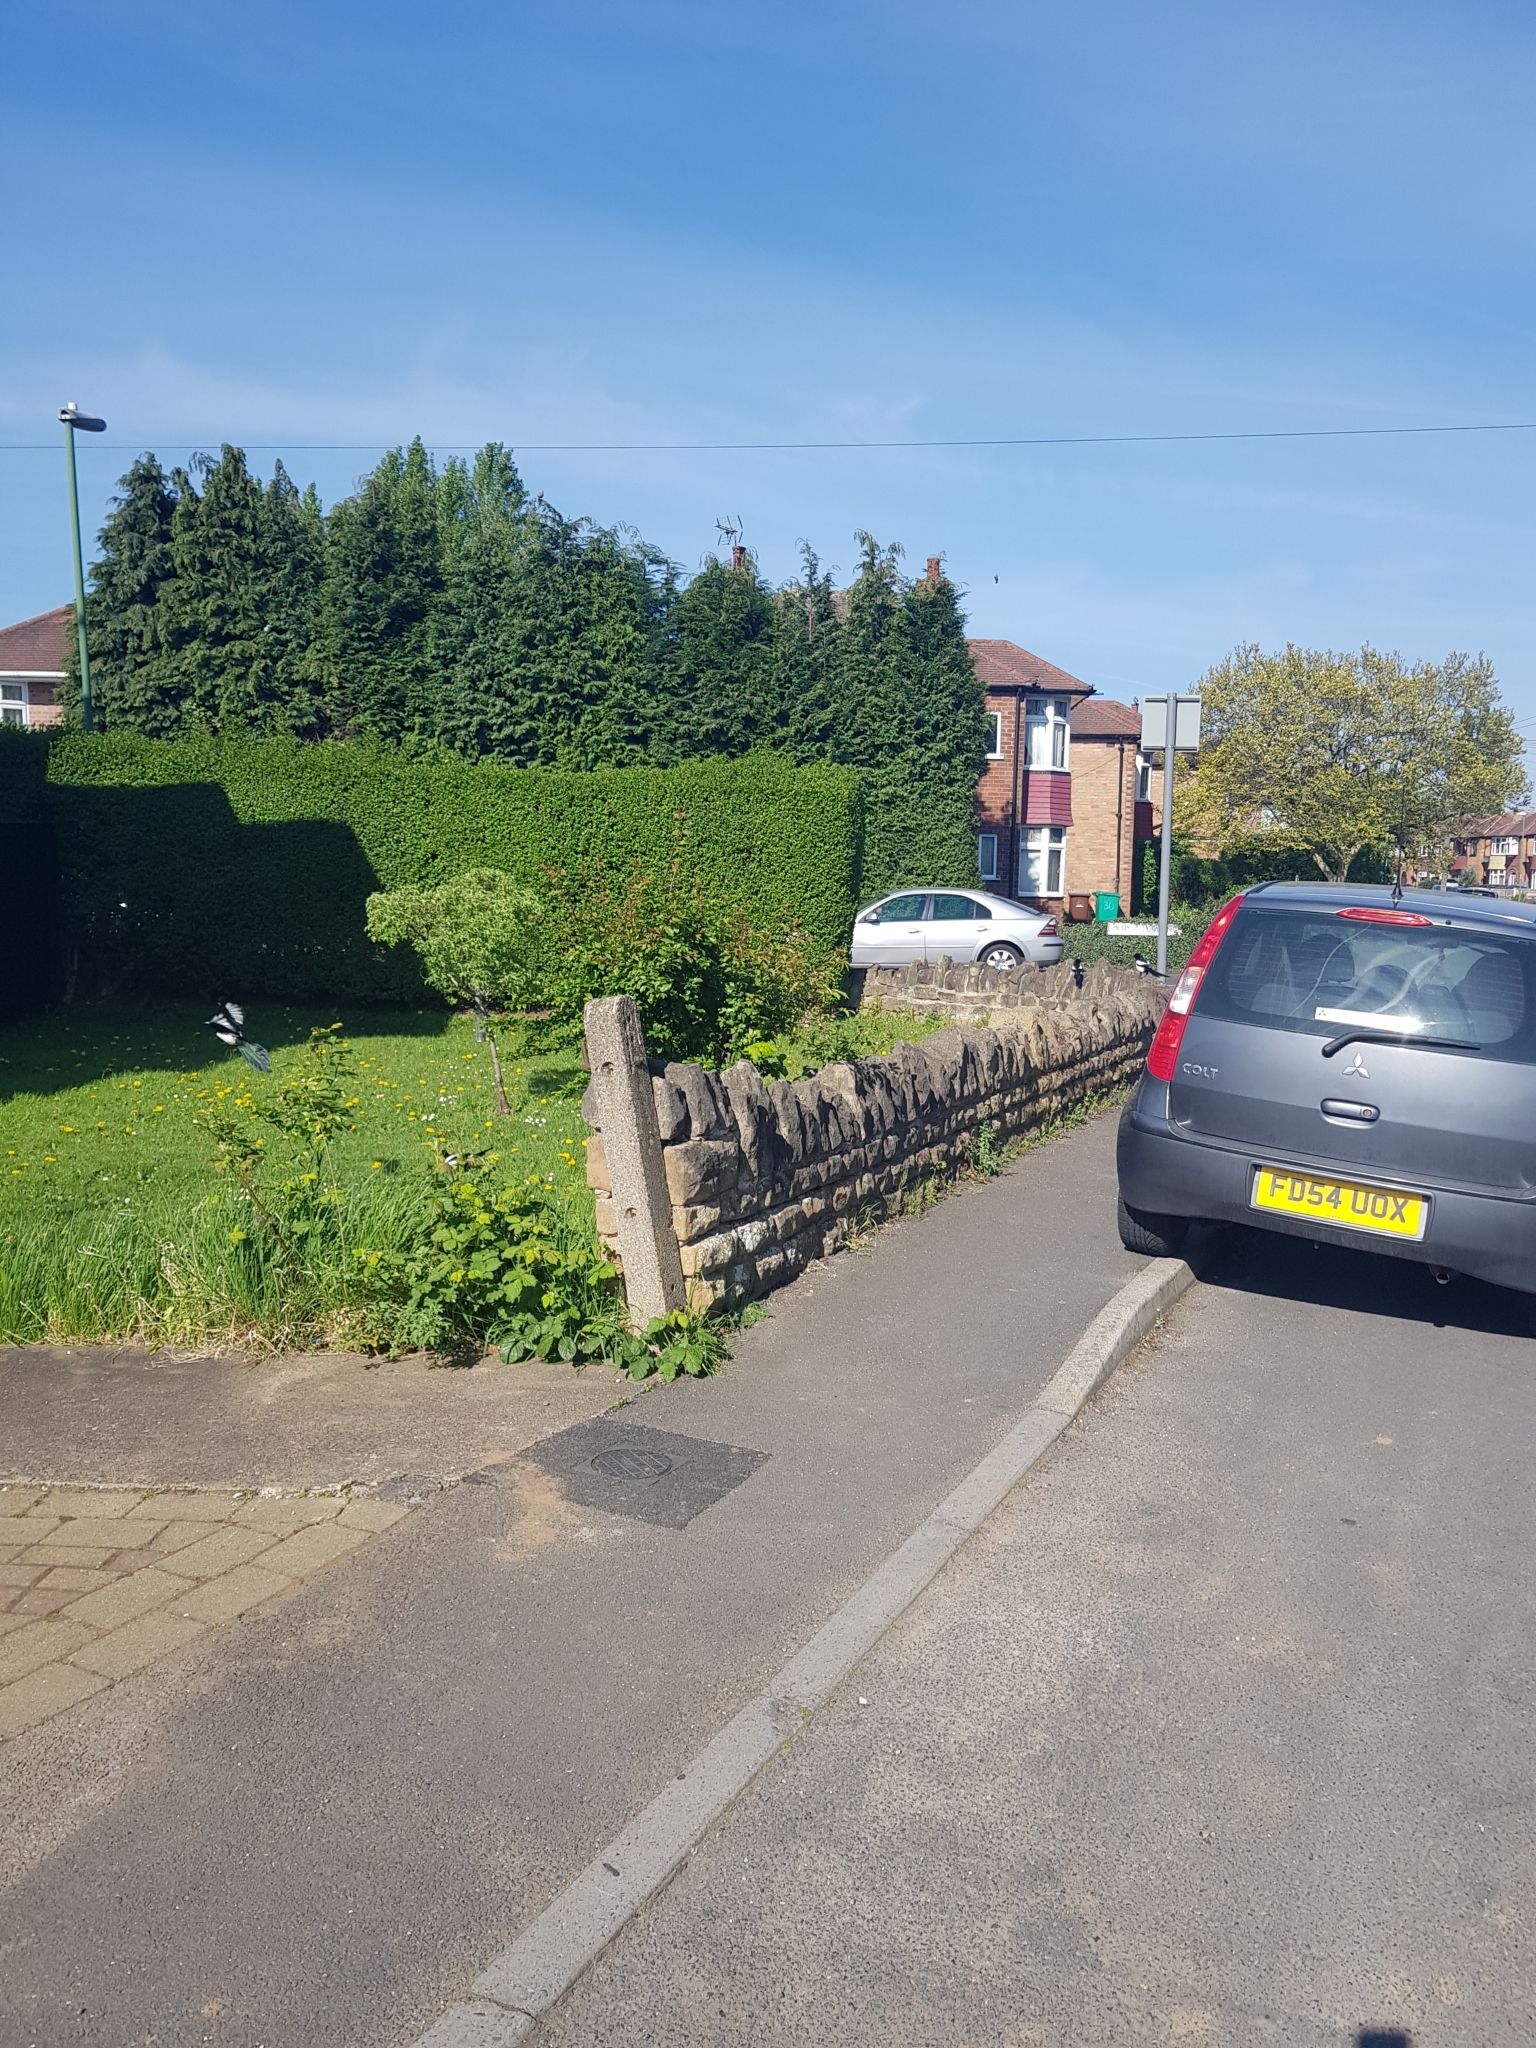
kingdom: Animalia
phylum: Chordata
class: Aves
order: Passeriformes
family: Corvidae
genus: Pica
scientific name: Pica pica
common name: Eurasian magpie
